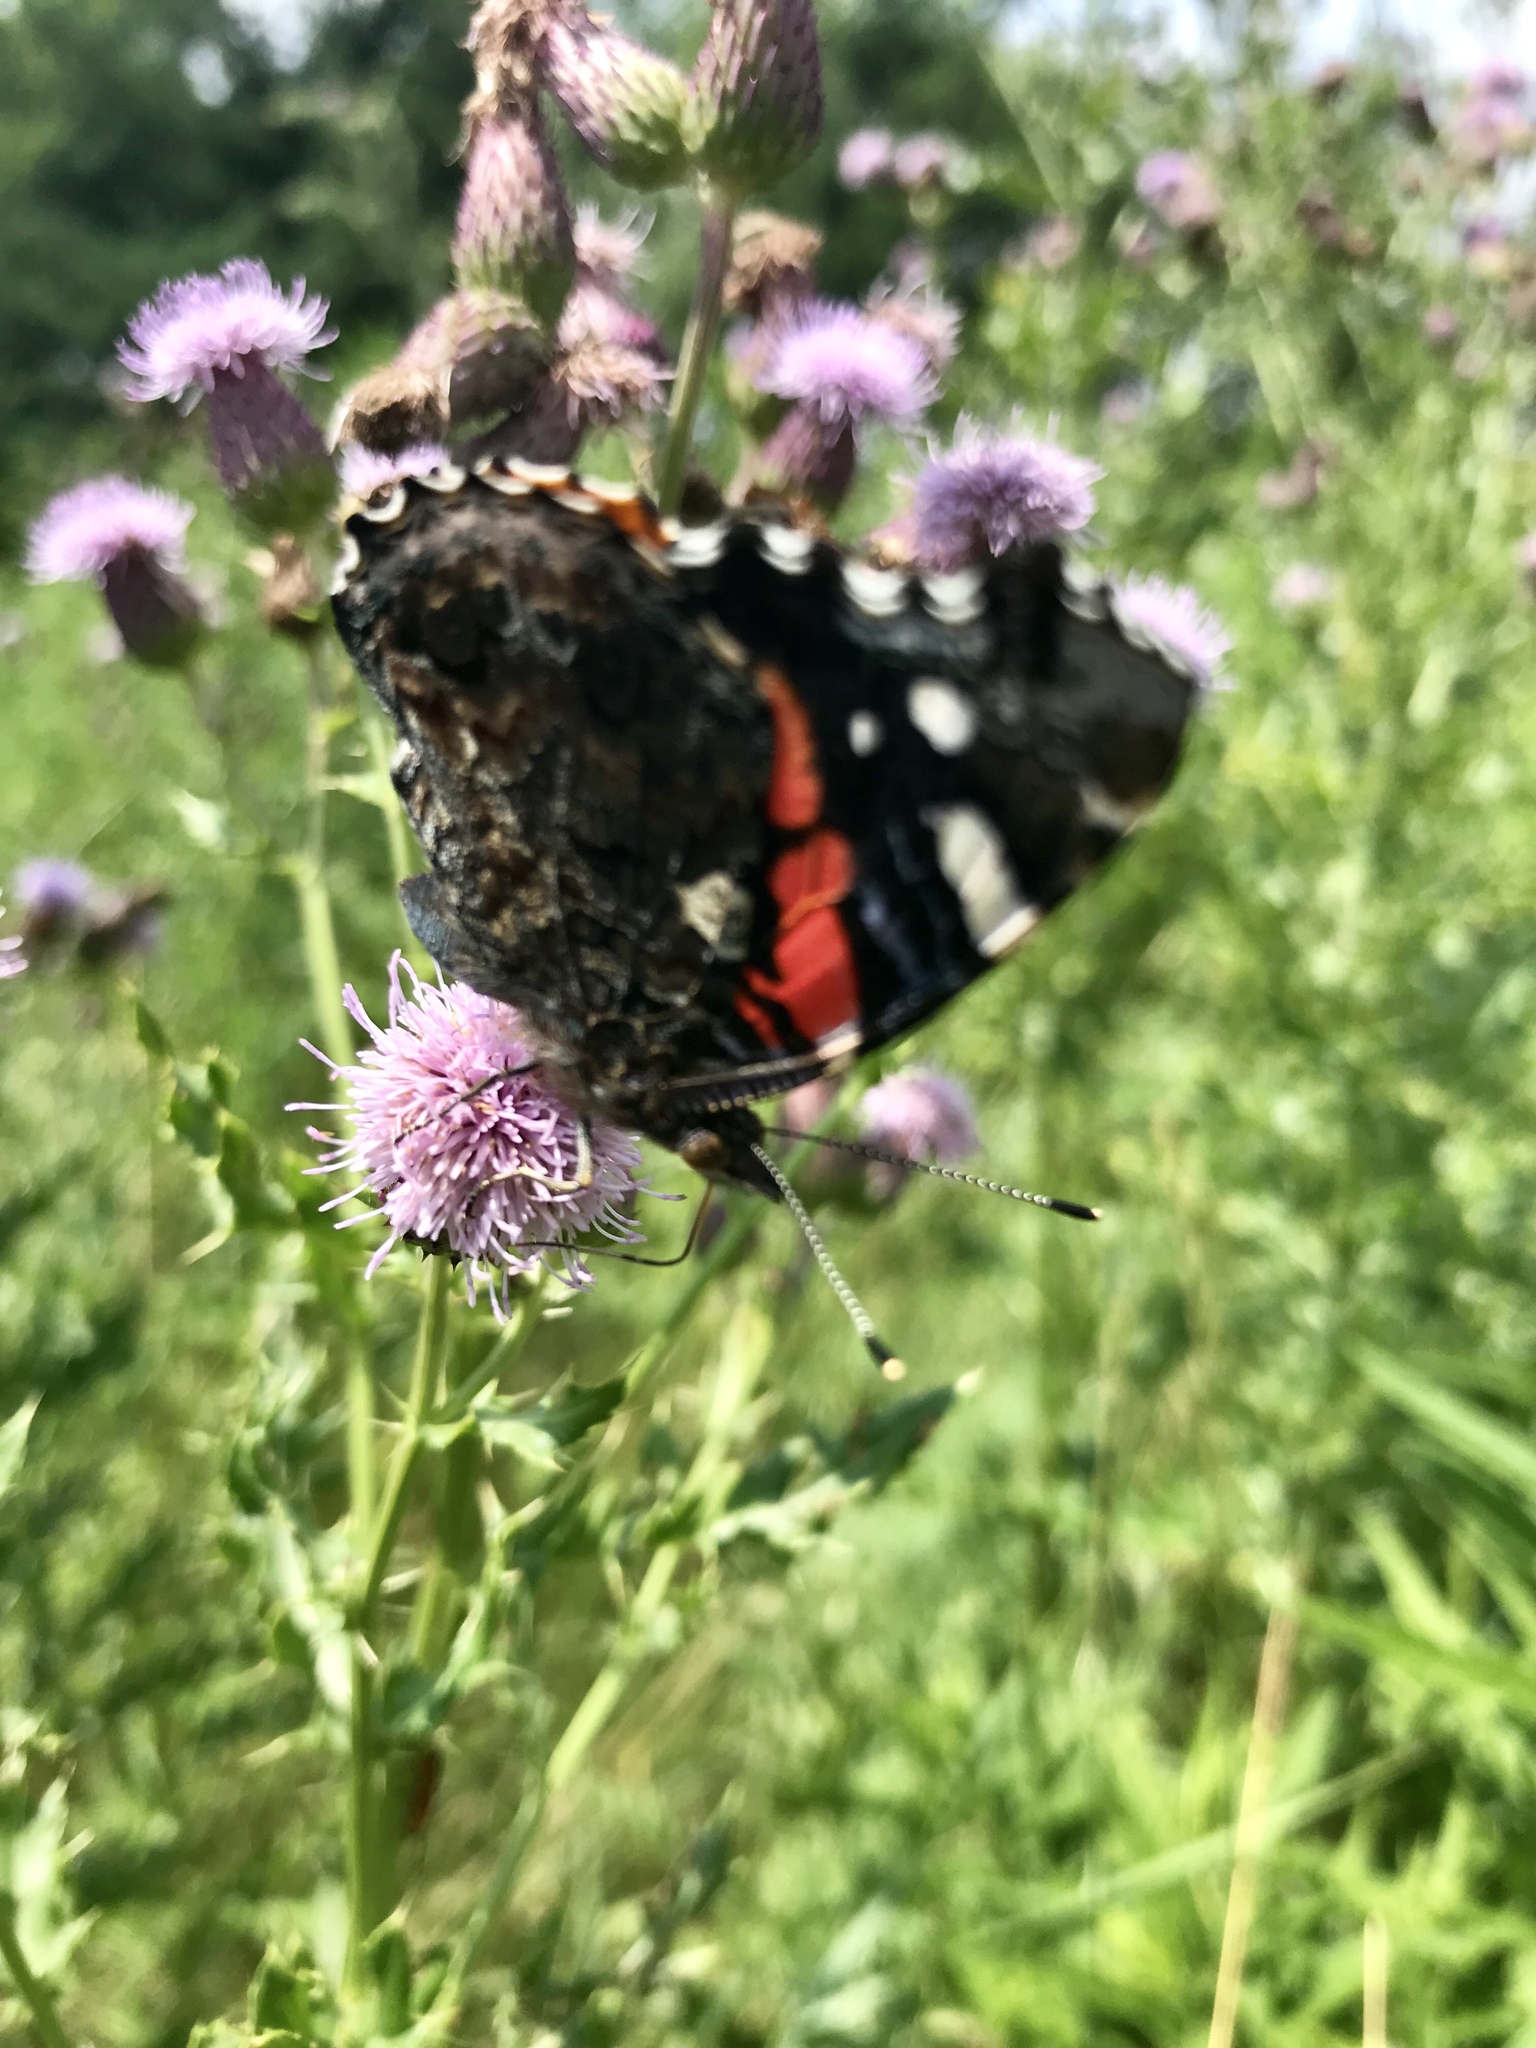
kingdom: Animalia
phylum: Arthropoda
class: Insecta
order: Lepidoptera
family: Nymphalidae
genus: Vanessa
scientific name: Vanessa atalanta
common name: Red admiral
